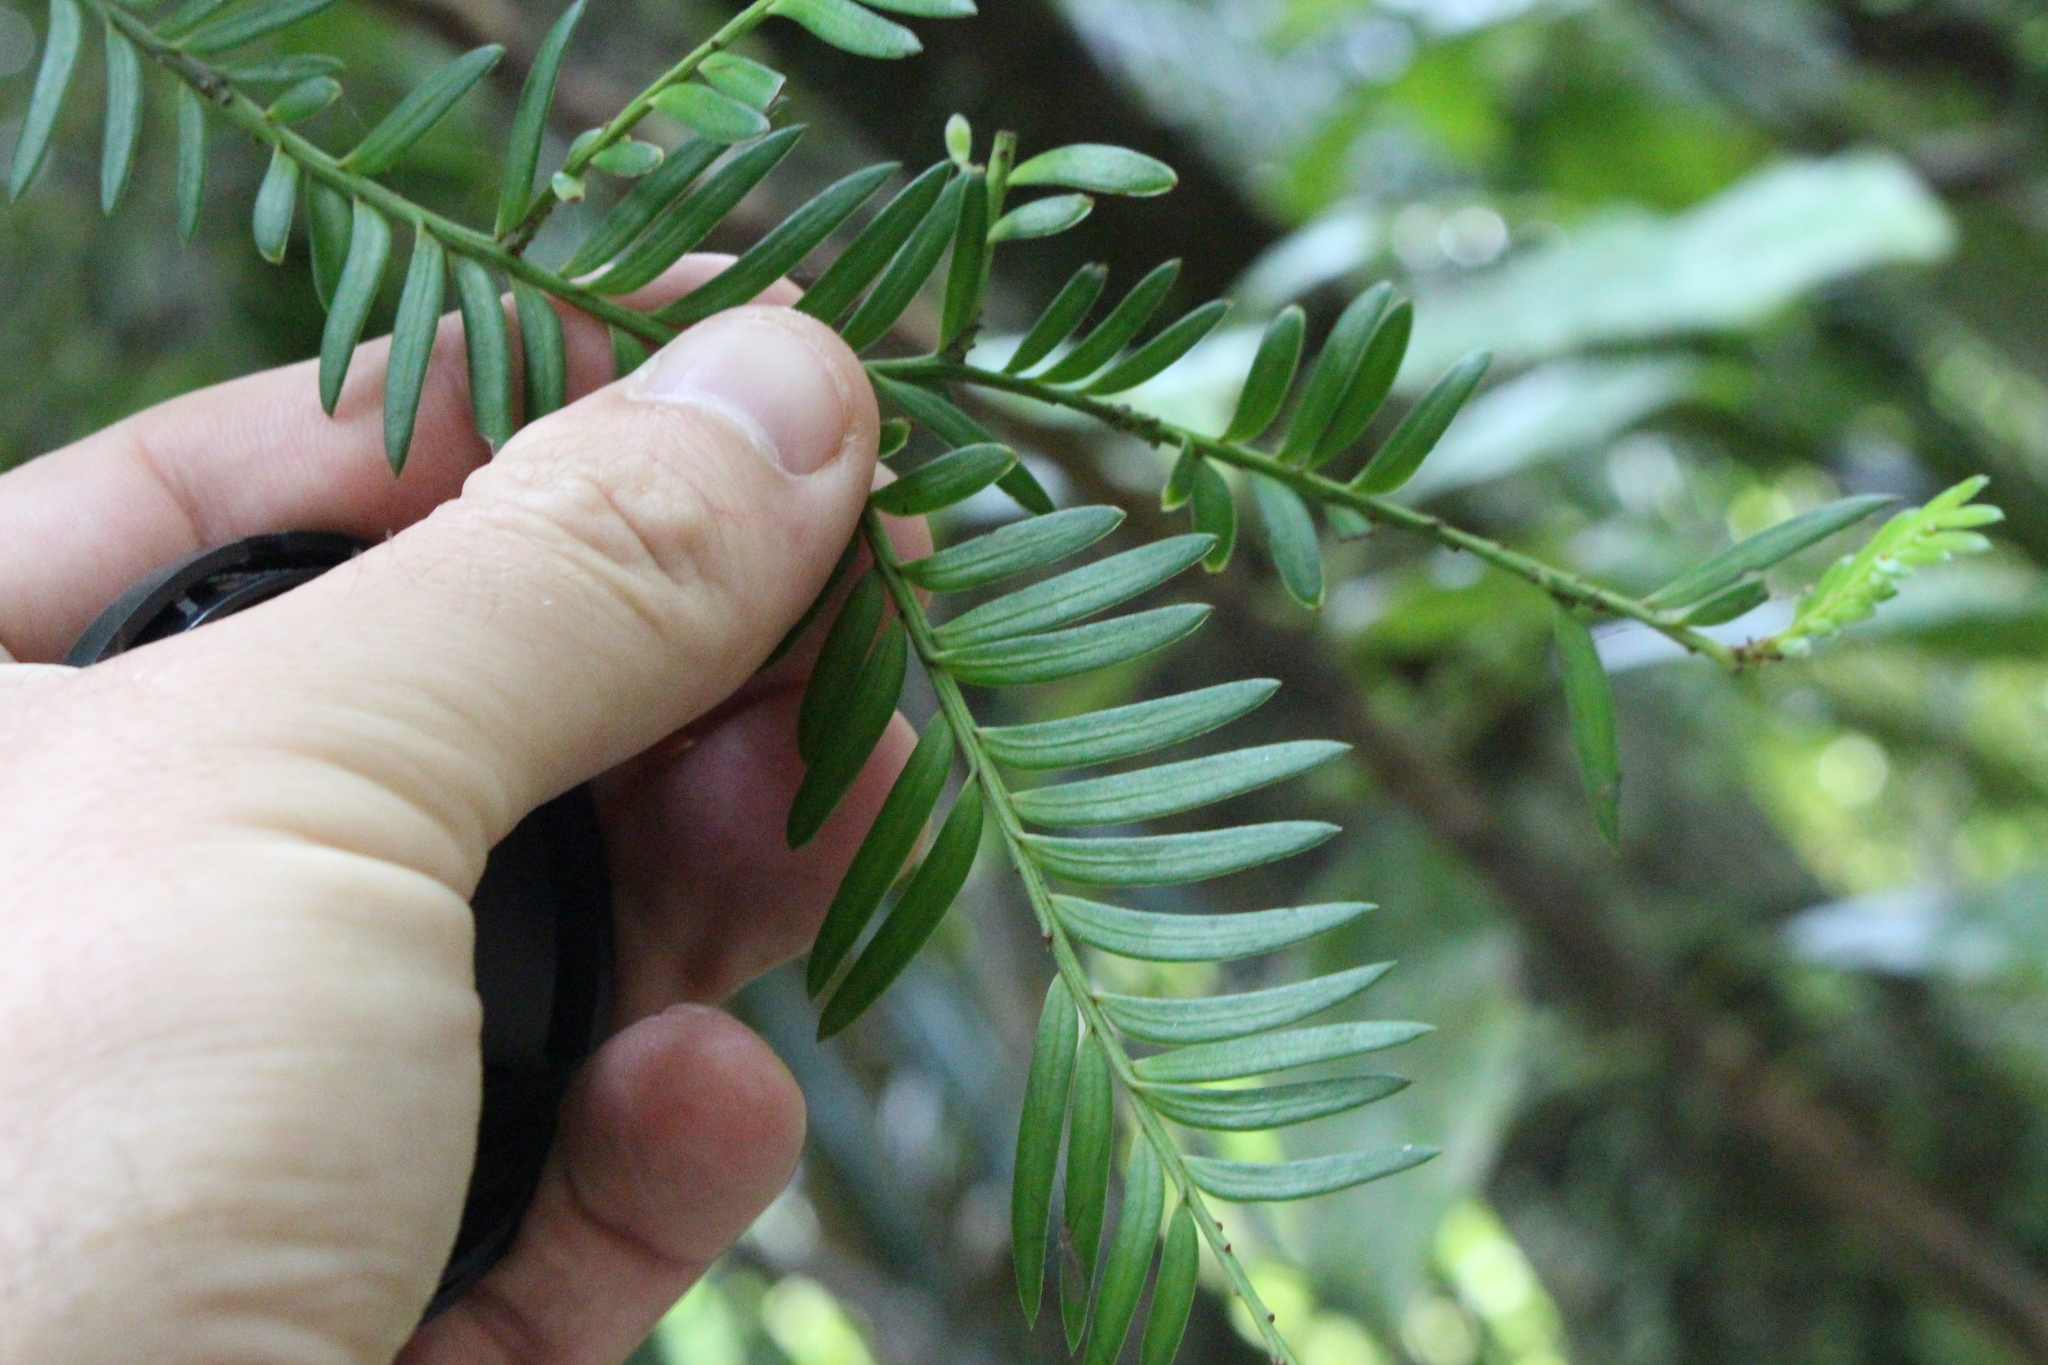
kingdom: Plantae
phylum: Tracheophyta
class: Pinopsida
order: Pinales
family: Podocarpaceae
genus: Prumnopitys
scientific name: Prumnopitys ferruginea
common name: Brown pine
